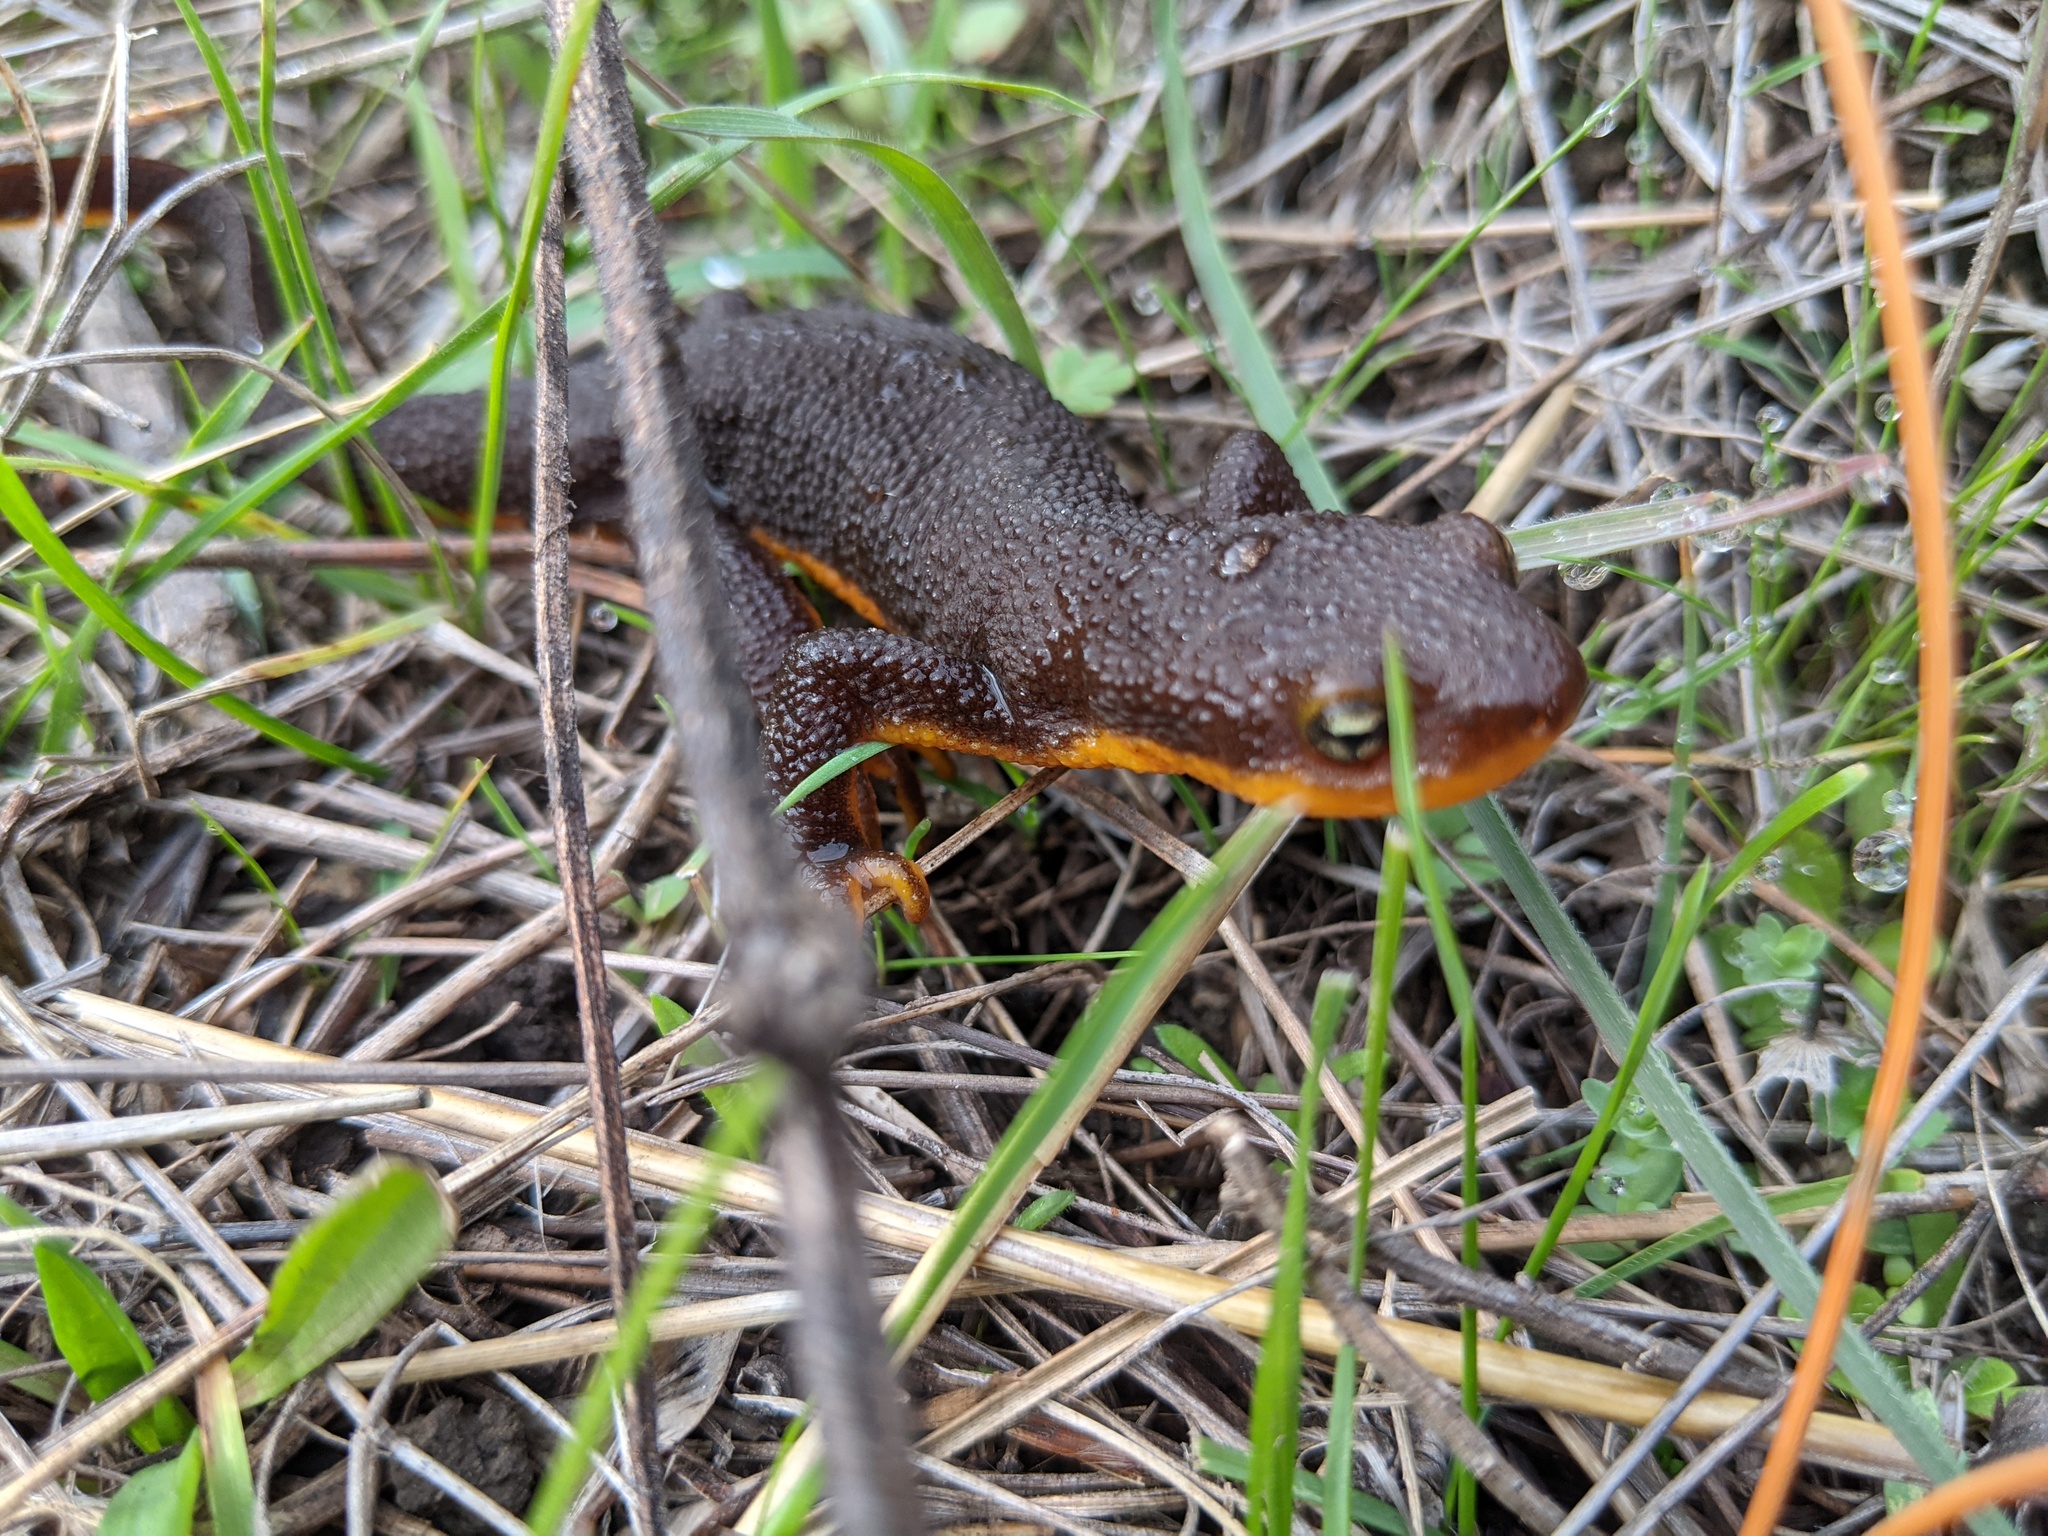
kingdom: Animalia
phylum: Chordata
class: Amphibia
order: Caudata
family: Salamandridae
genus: Taricha
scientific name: Taricha granulosa
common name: Roughskin newt
